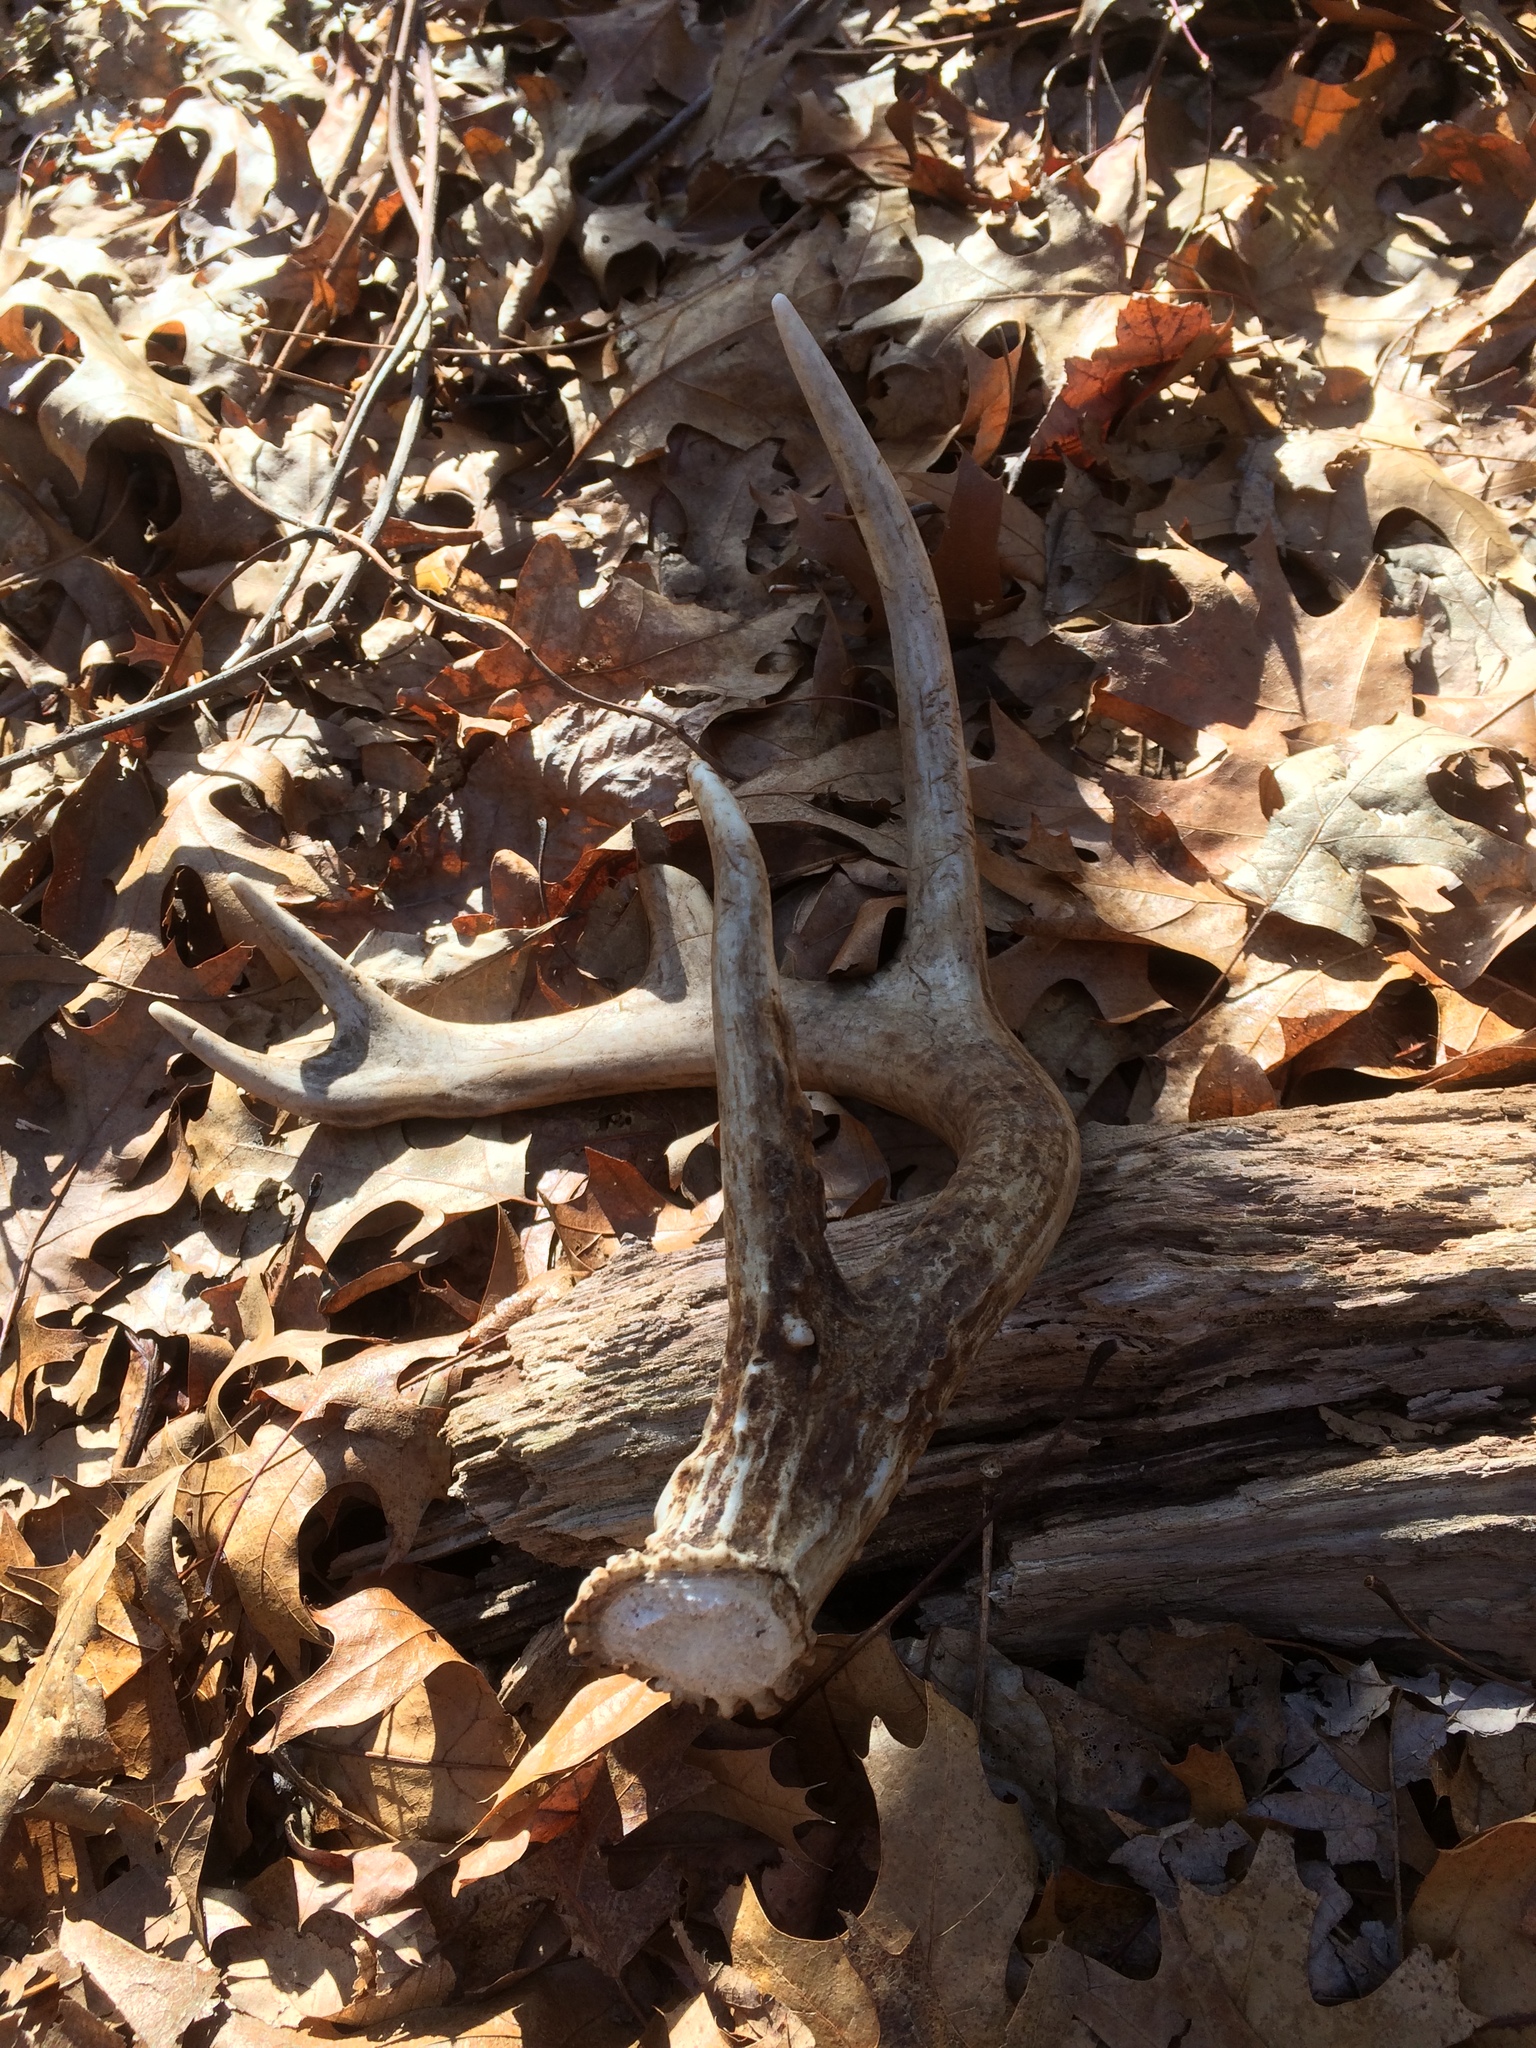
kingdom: Animalia
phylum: Chordata
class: Mammalia
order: Artiodactyla
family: Cervidae
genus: Odocoileus
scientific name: Odocoileus virginianus
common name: White-tailed deer
